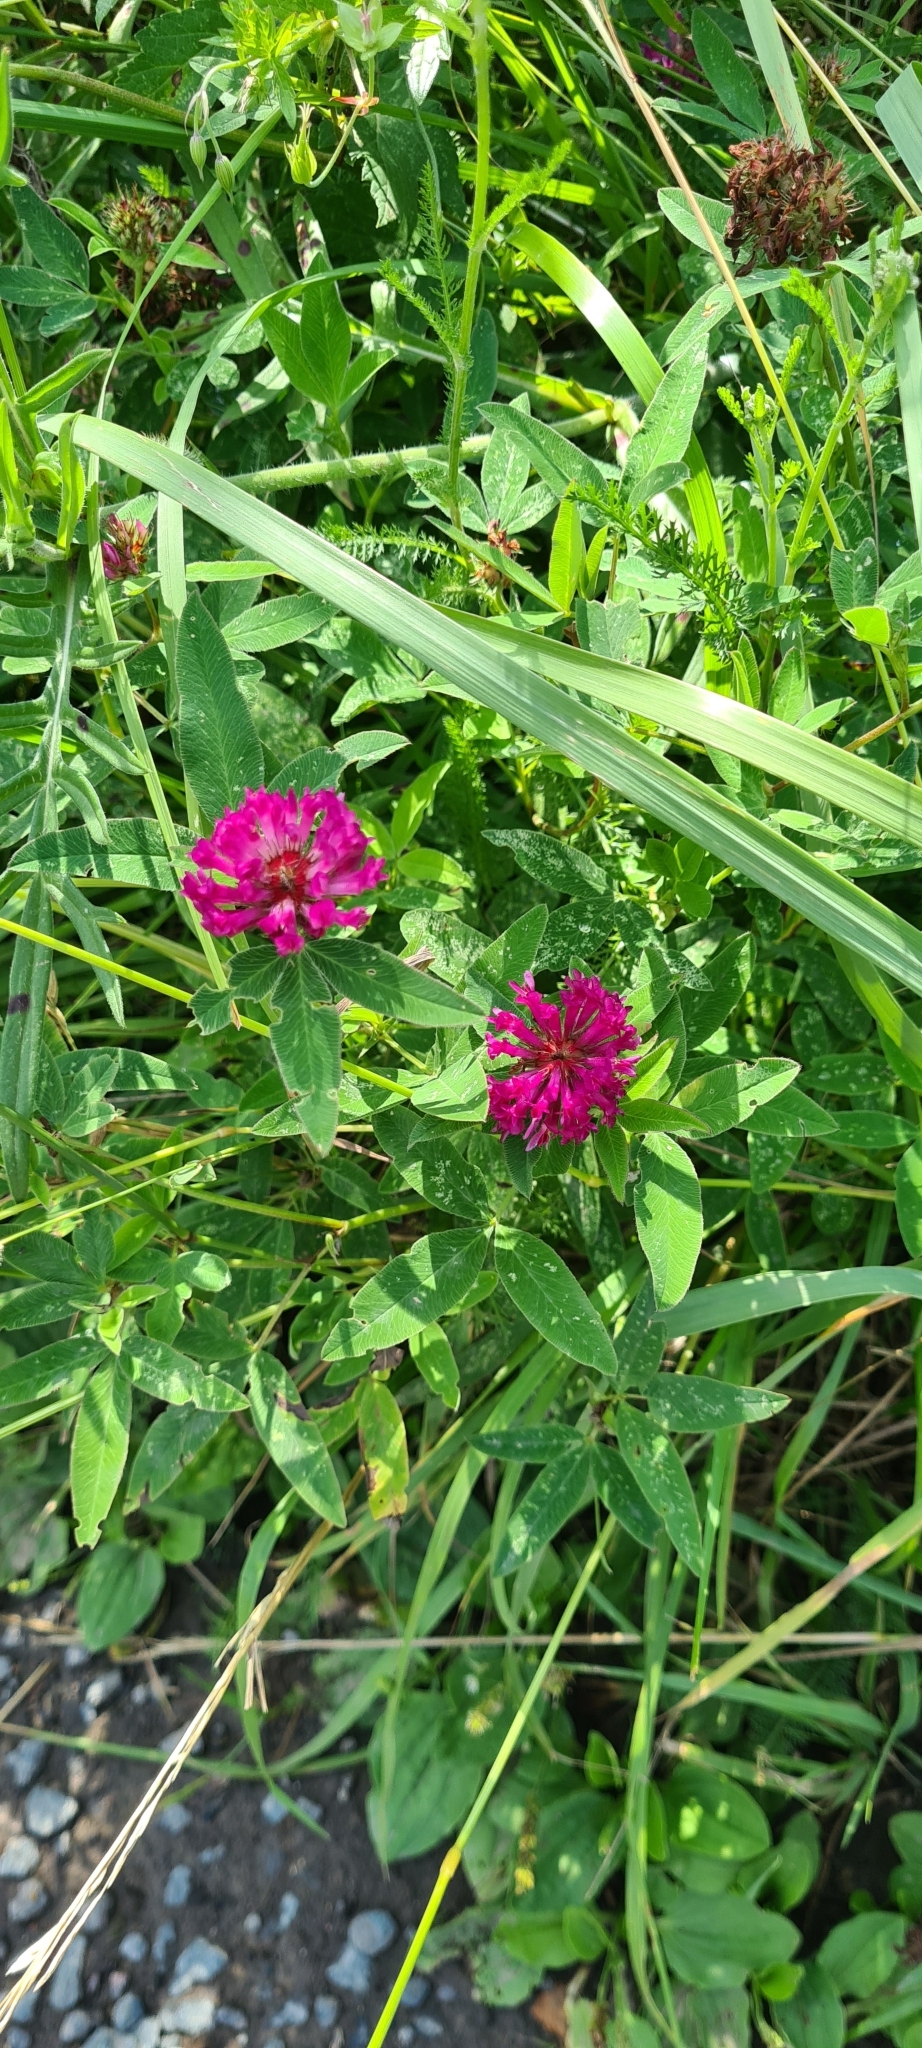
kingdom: Plantae
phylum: Tracheophyta
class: Magnoliopsida
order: Fabales
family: Fabaceae
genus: Trifolium
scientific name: Trifolium medium
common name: Zigzag clover
